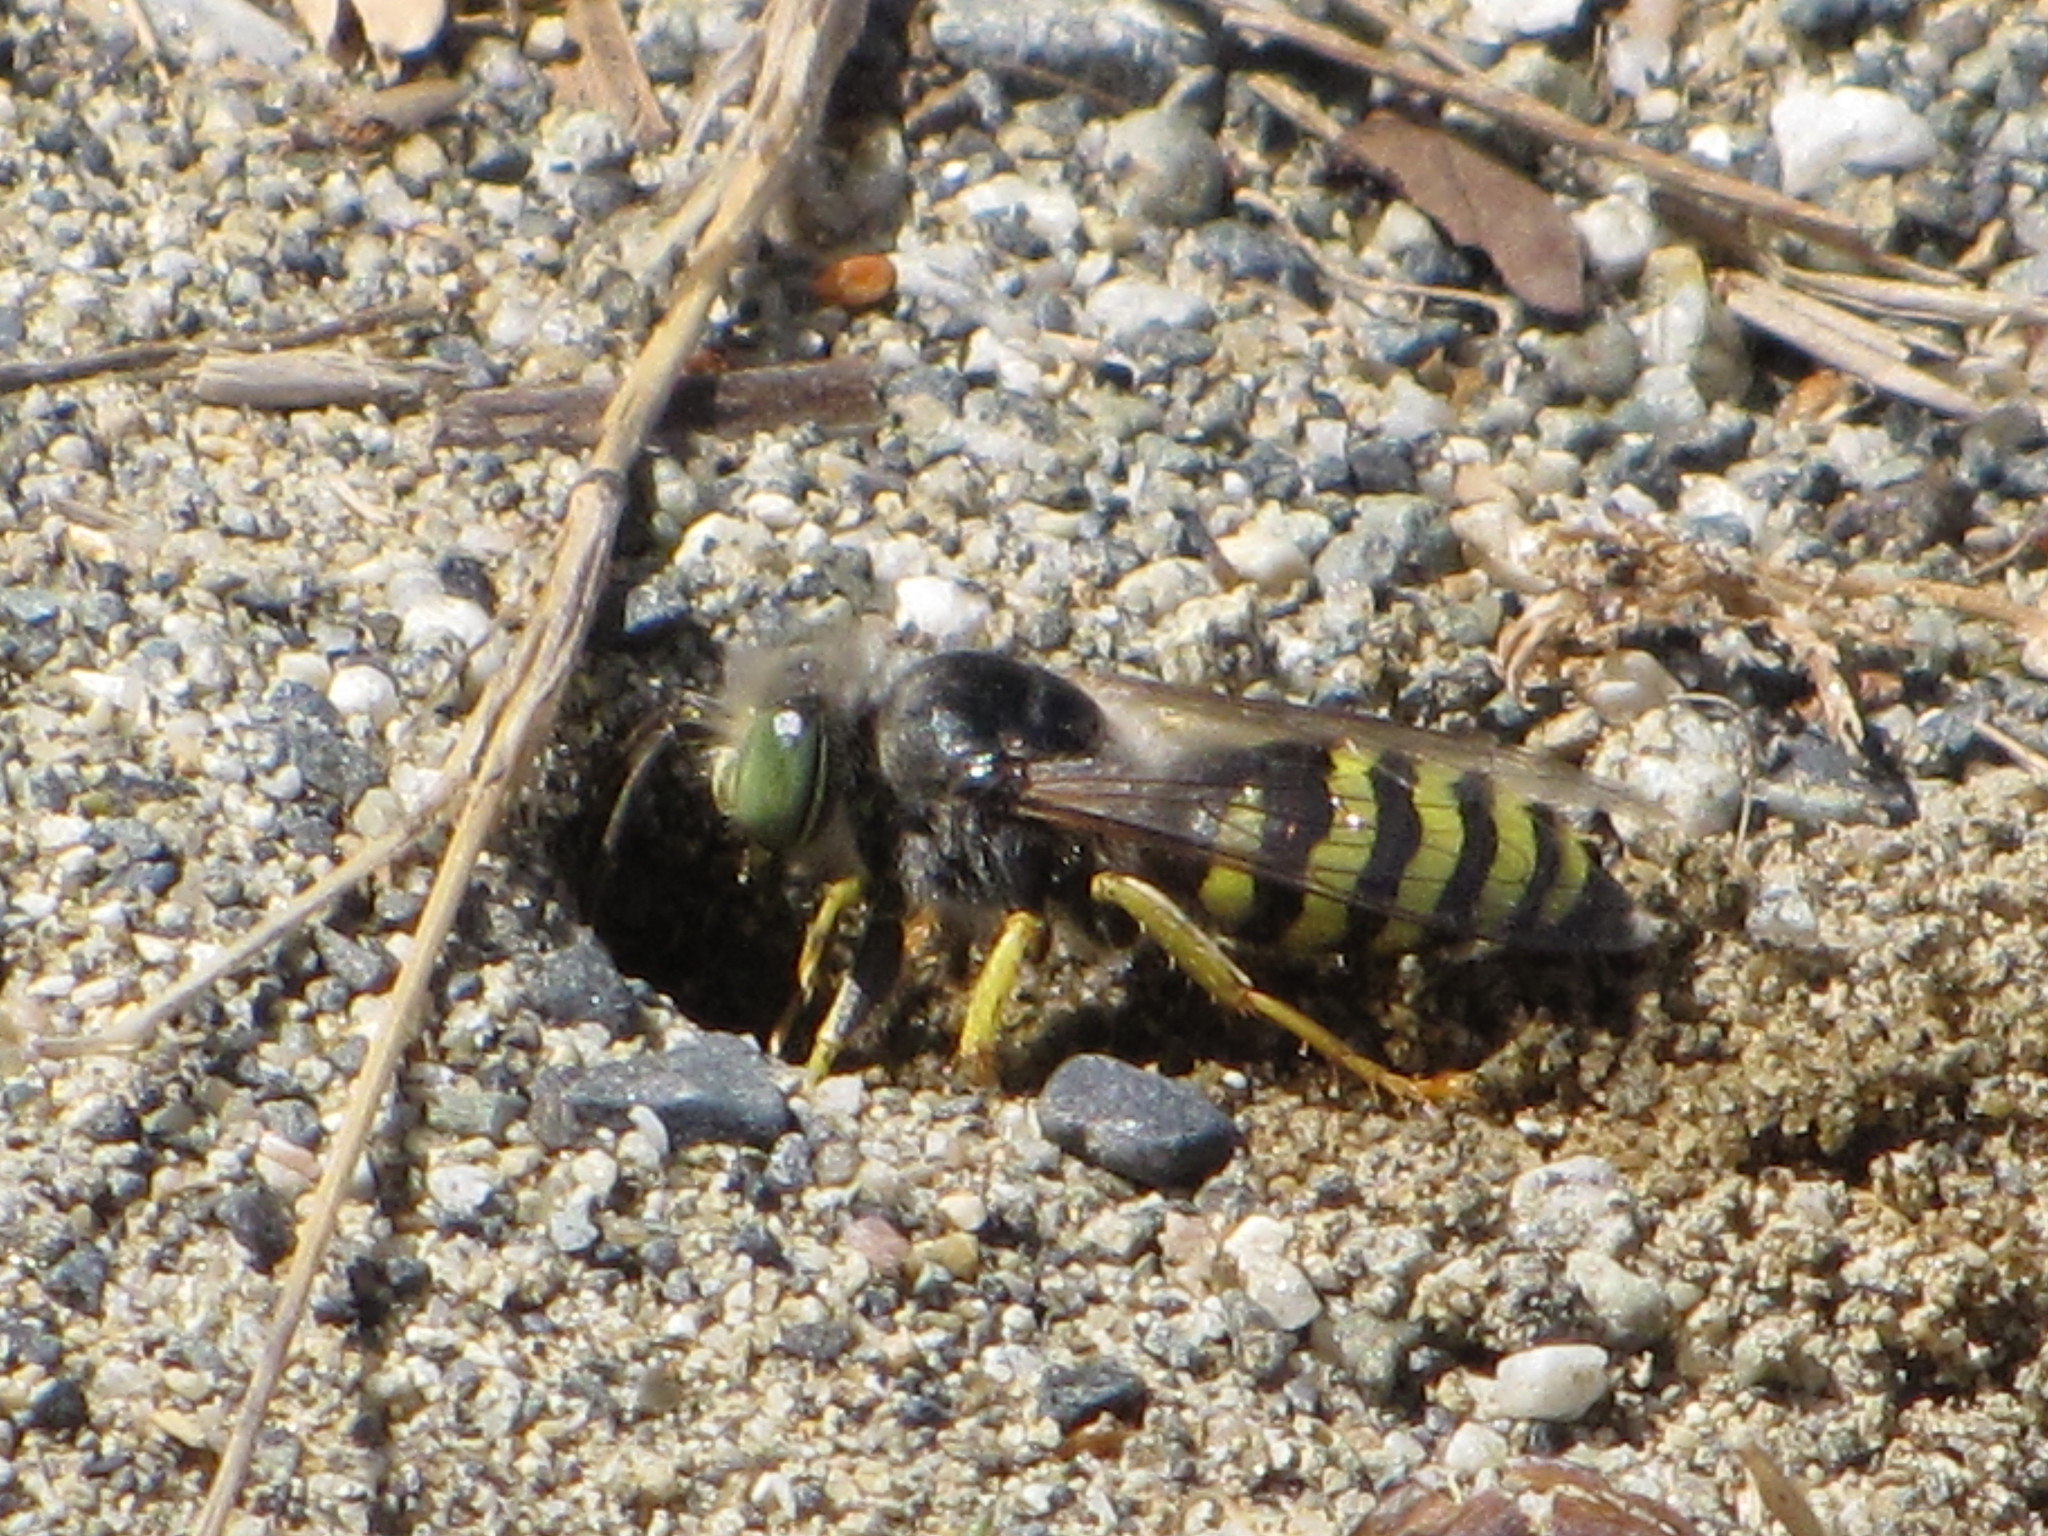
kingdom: Animalia
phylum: Arthropoda
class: Insecta
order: Hymenoptera
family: Crabronidae
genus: Bembix
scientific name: Bembix americana
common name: American sand wasp
